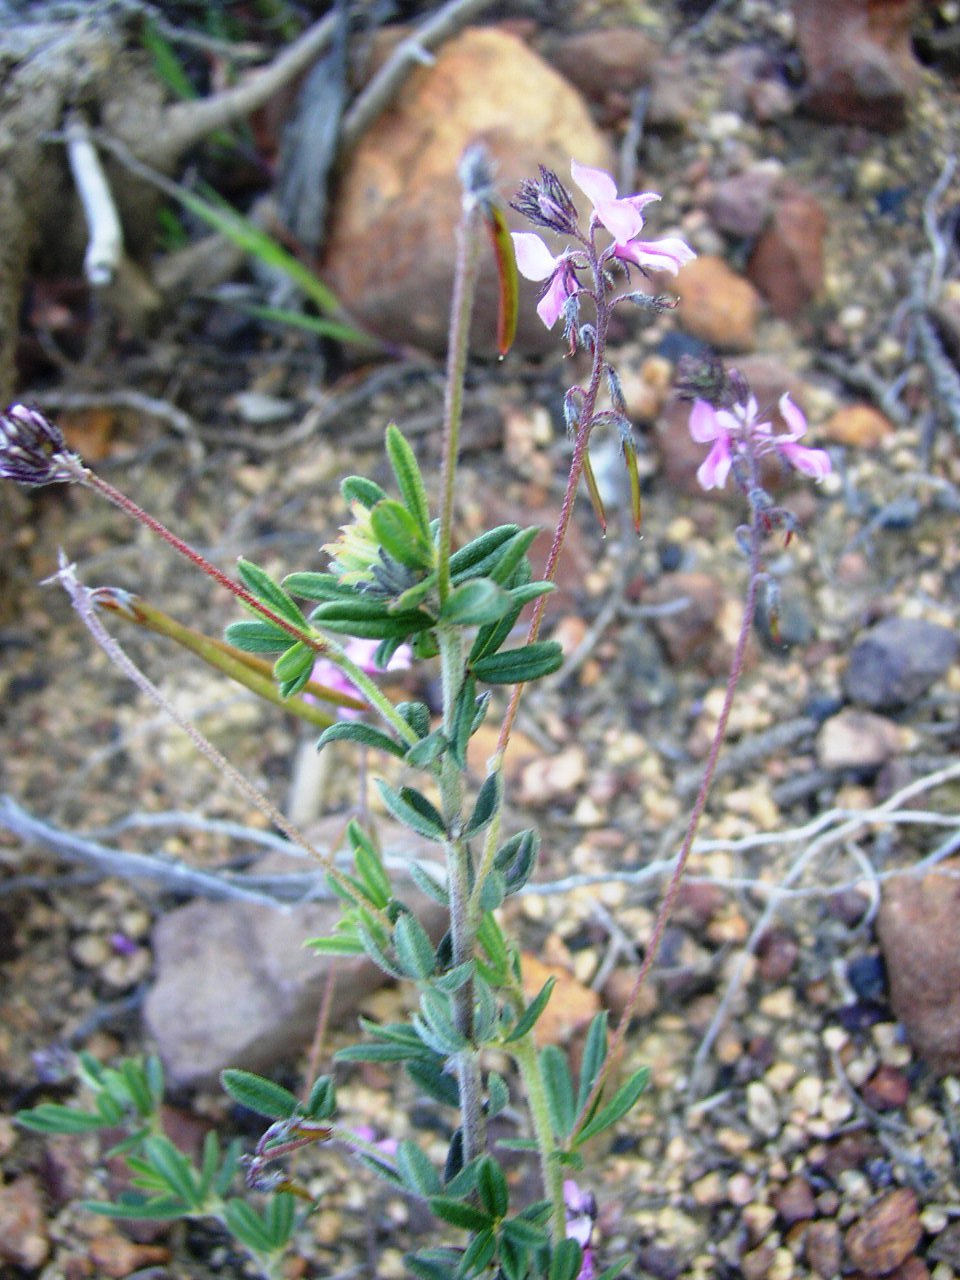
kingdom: Plantae
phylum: Tracheophyta
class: Magnoliopsida
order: Fabales
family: Fabaceae
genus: Indigofera
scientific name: Indigofera filiformis
